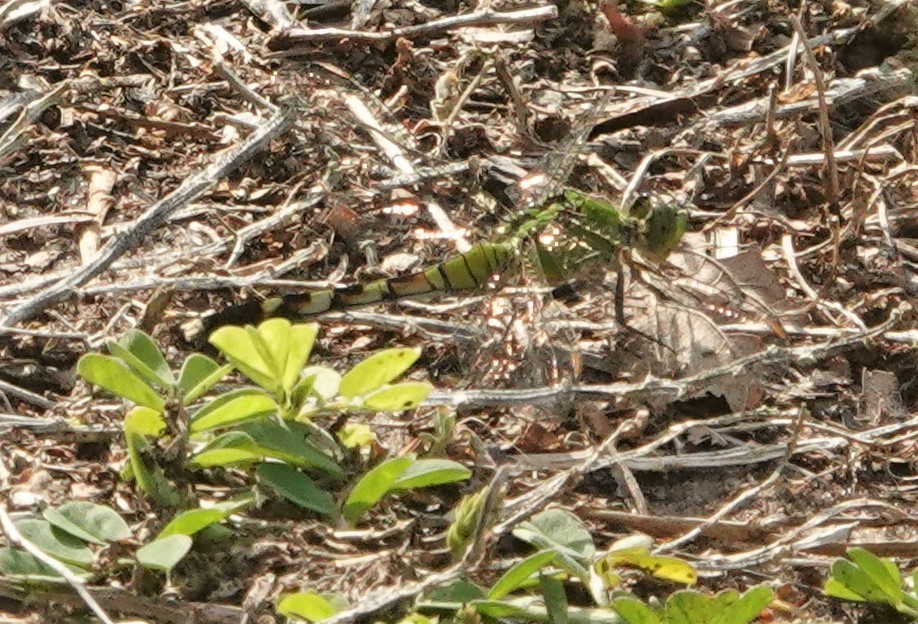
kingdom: Animalia
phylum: Arthropoda
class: Insecta
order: Odonata
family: Libellulidae
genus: Erythemis
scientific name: Erythemis simplicicollis
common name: Eastern pondhawk
